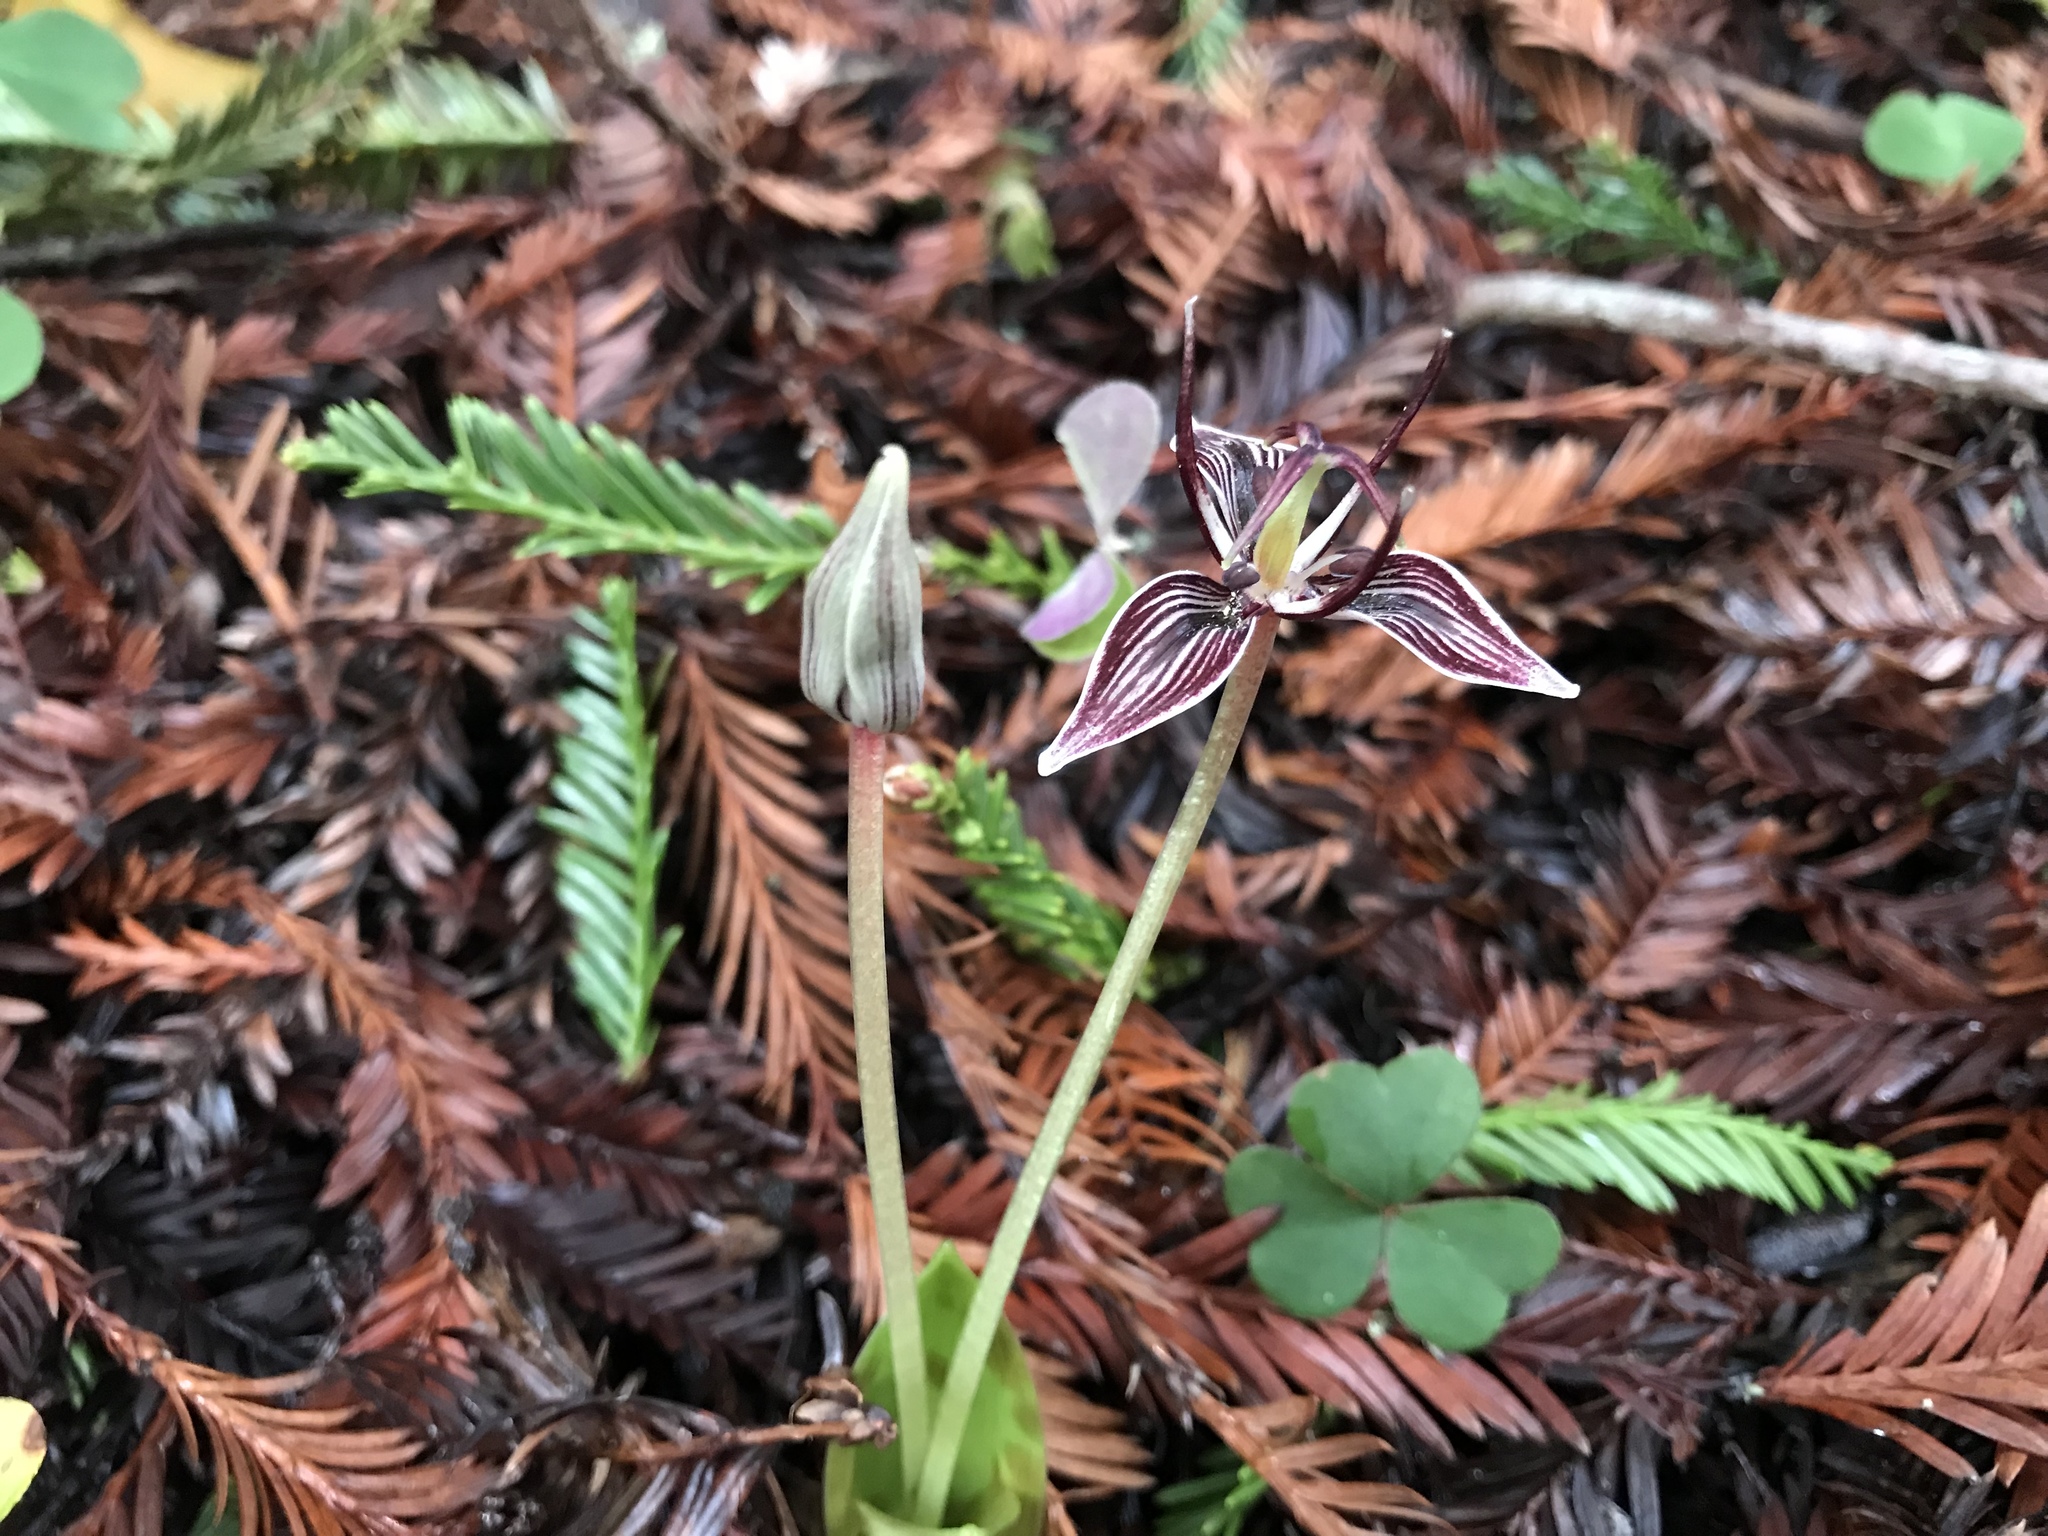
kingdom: Plantae
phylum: Tracheophyta
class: Liliopsida
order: Liliales
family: Liliaceae
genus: Scoliopus
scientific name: Scoliopus bigelovii
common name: Foetid adder's-tongue
